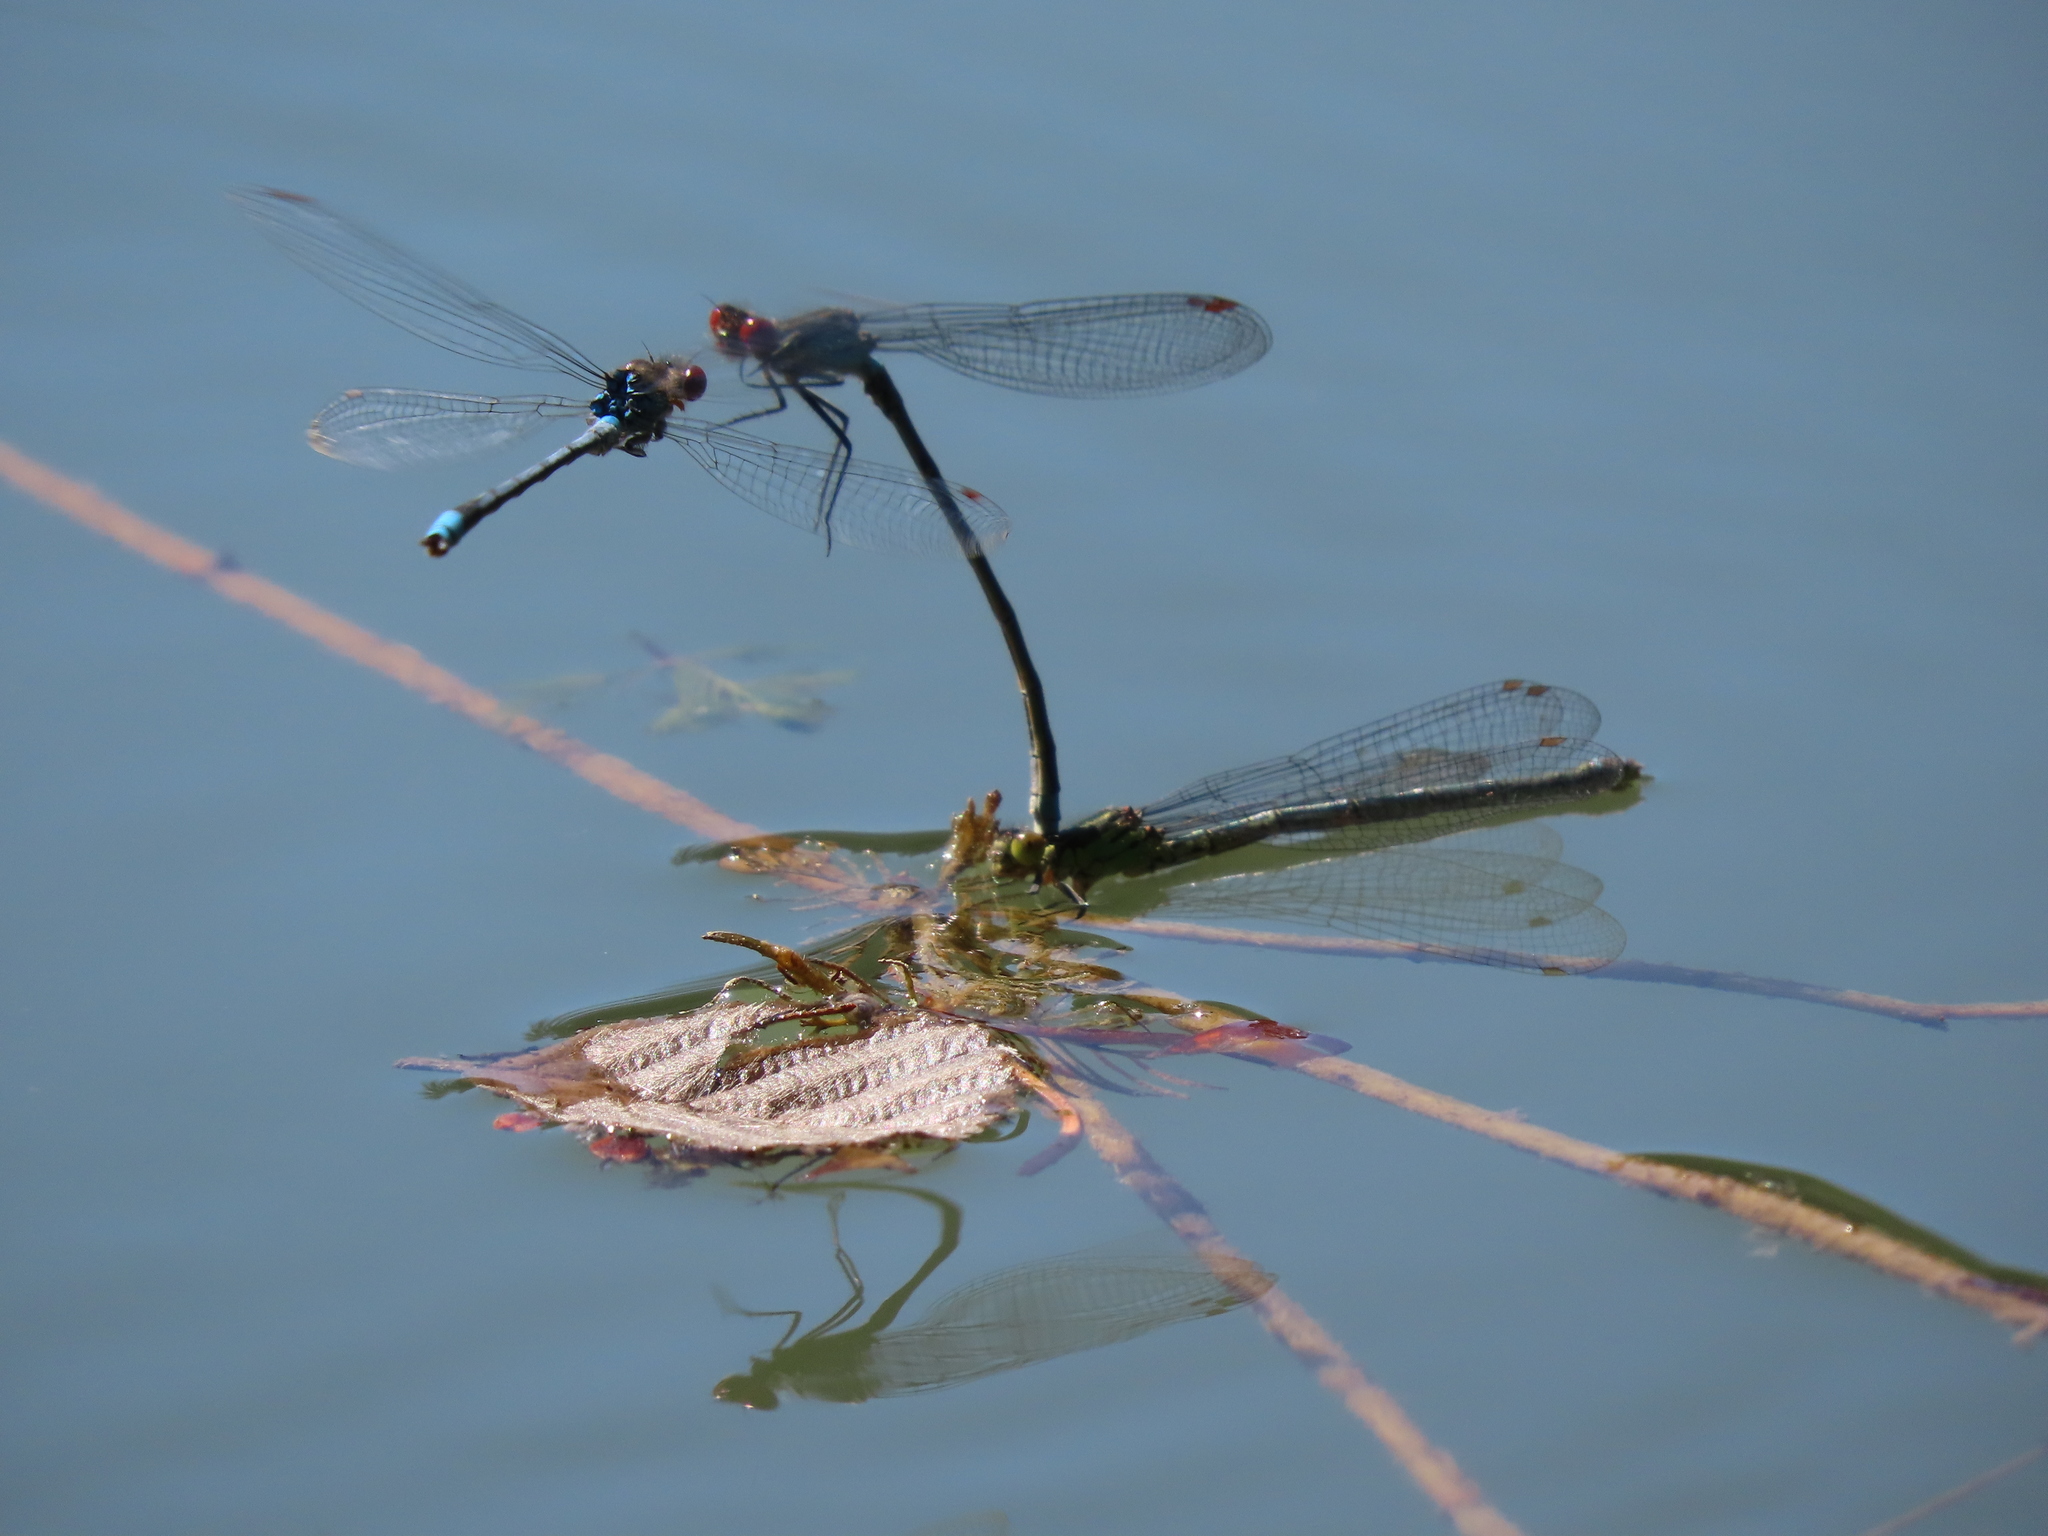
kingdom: Animalia
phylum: Arthropoda
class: Insecta
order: Odonata
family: Coenagrionidae
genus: Erythromma
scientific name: Erythromma najas
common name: Red-eyed damselfly
